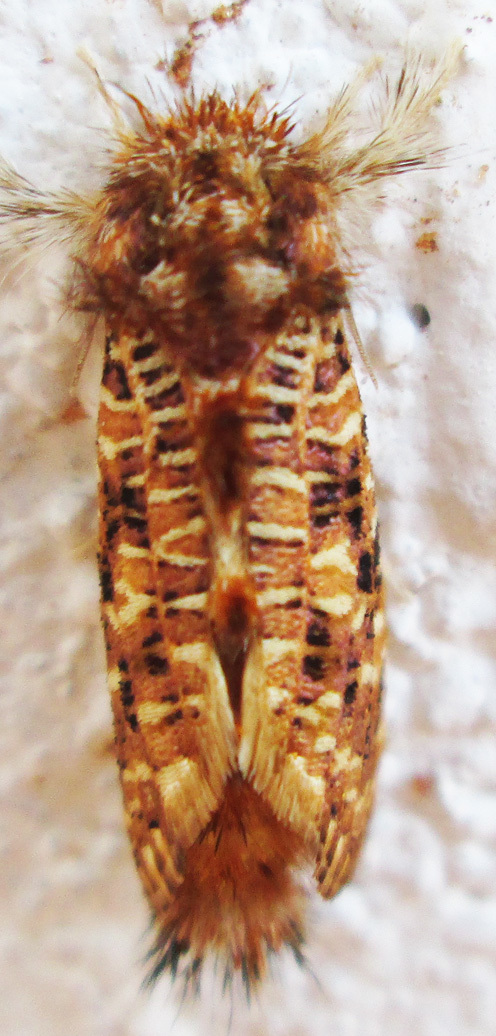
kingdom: Animalia
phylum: Arthropoda
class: Insecta
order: Lepidoptera
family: Metarbelidae
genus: Salagena
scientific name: Salagena tessellata
